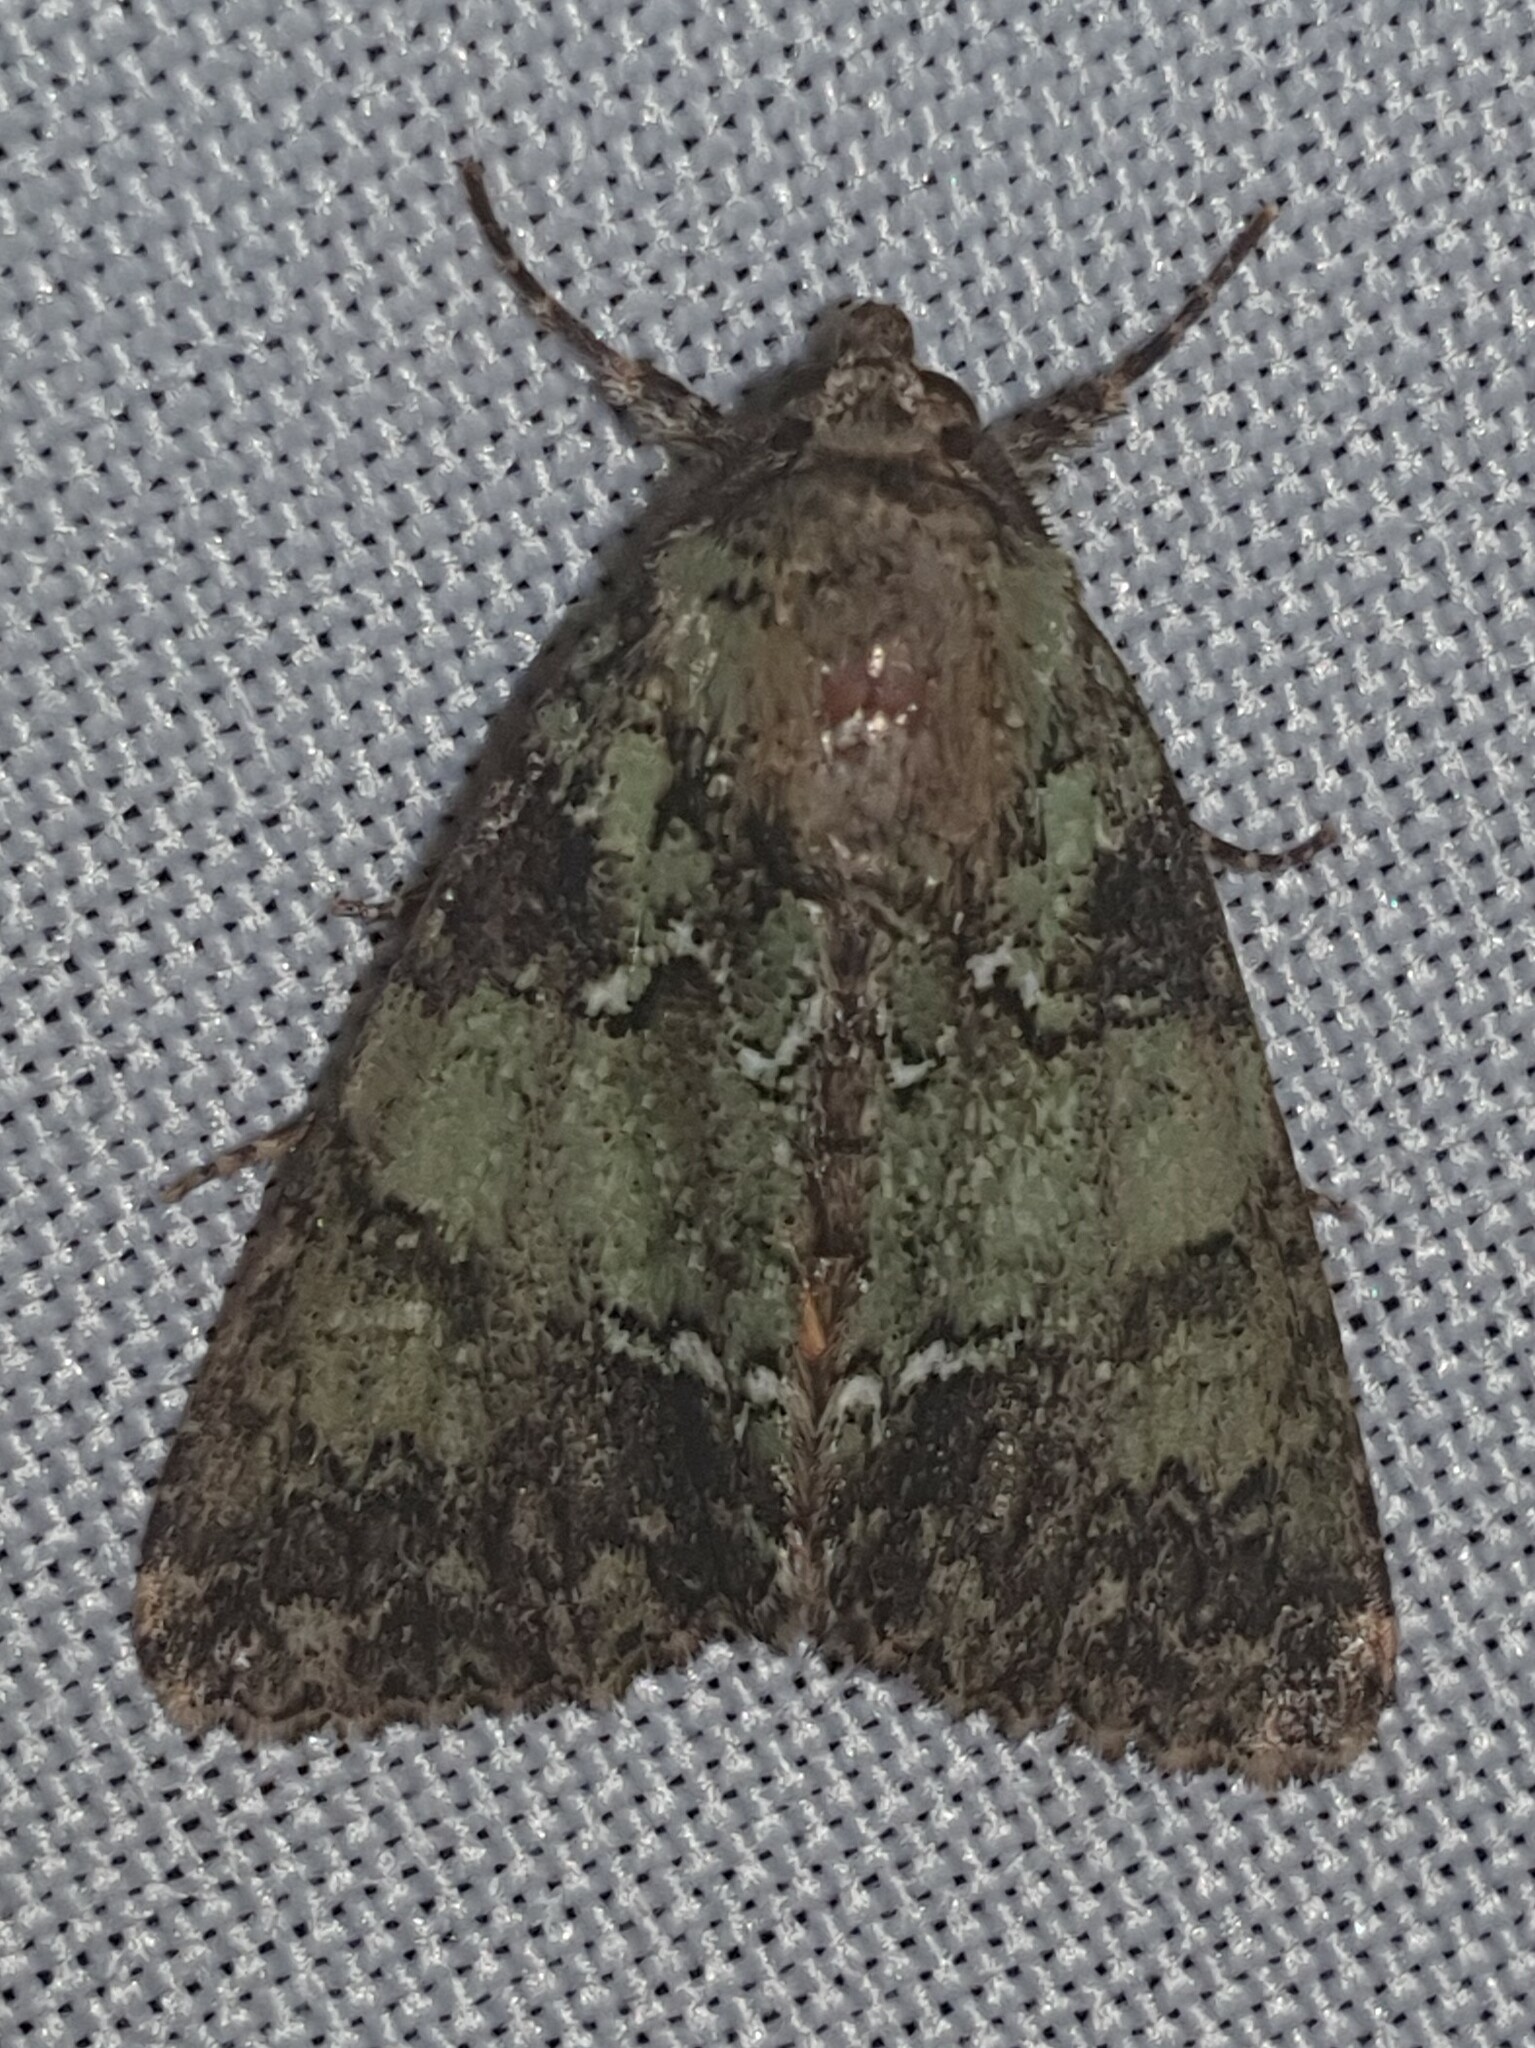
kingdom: Animalia
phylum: Arthropoda
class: Insecta
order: Lepidoptera
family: Noctuidae
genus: Polyphaenis
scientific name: Polyphaenis sericata
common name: Guernsey underwing
